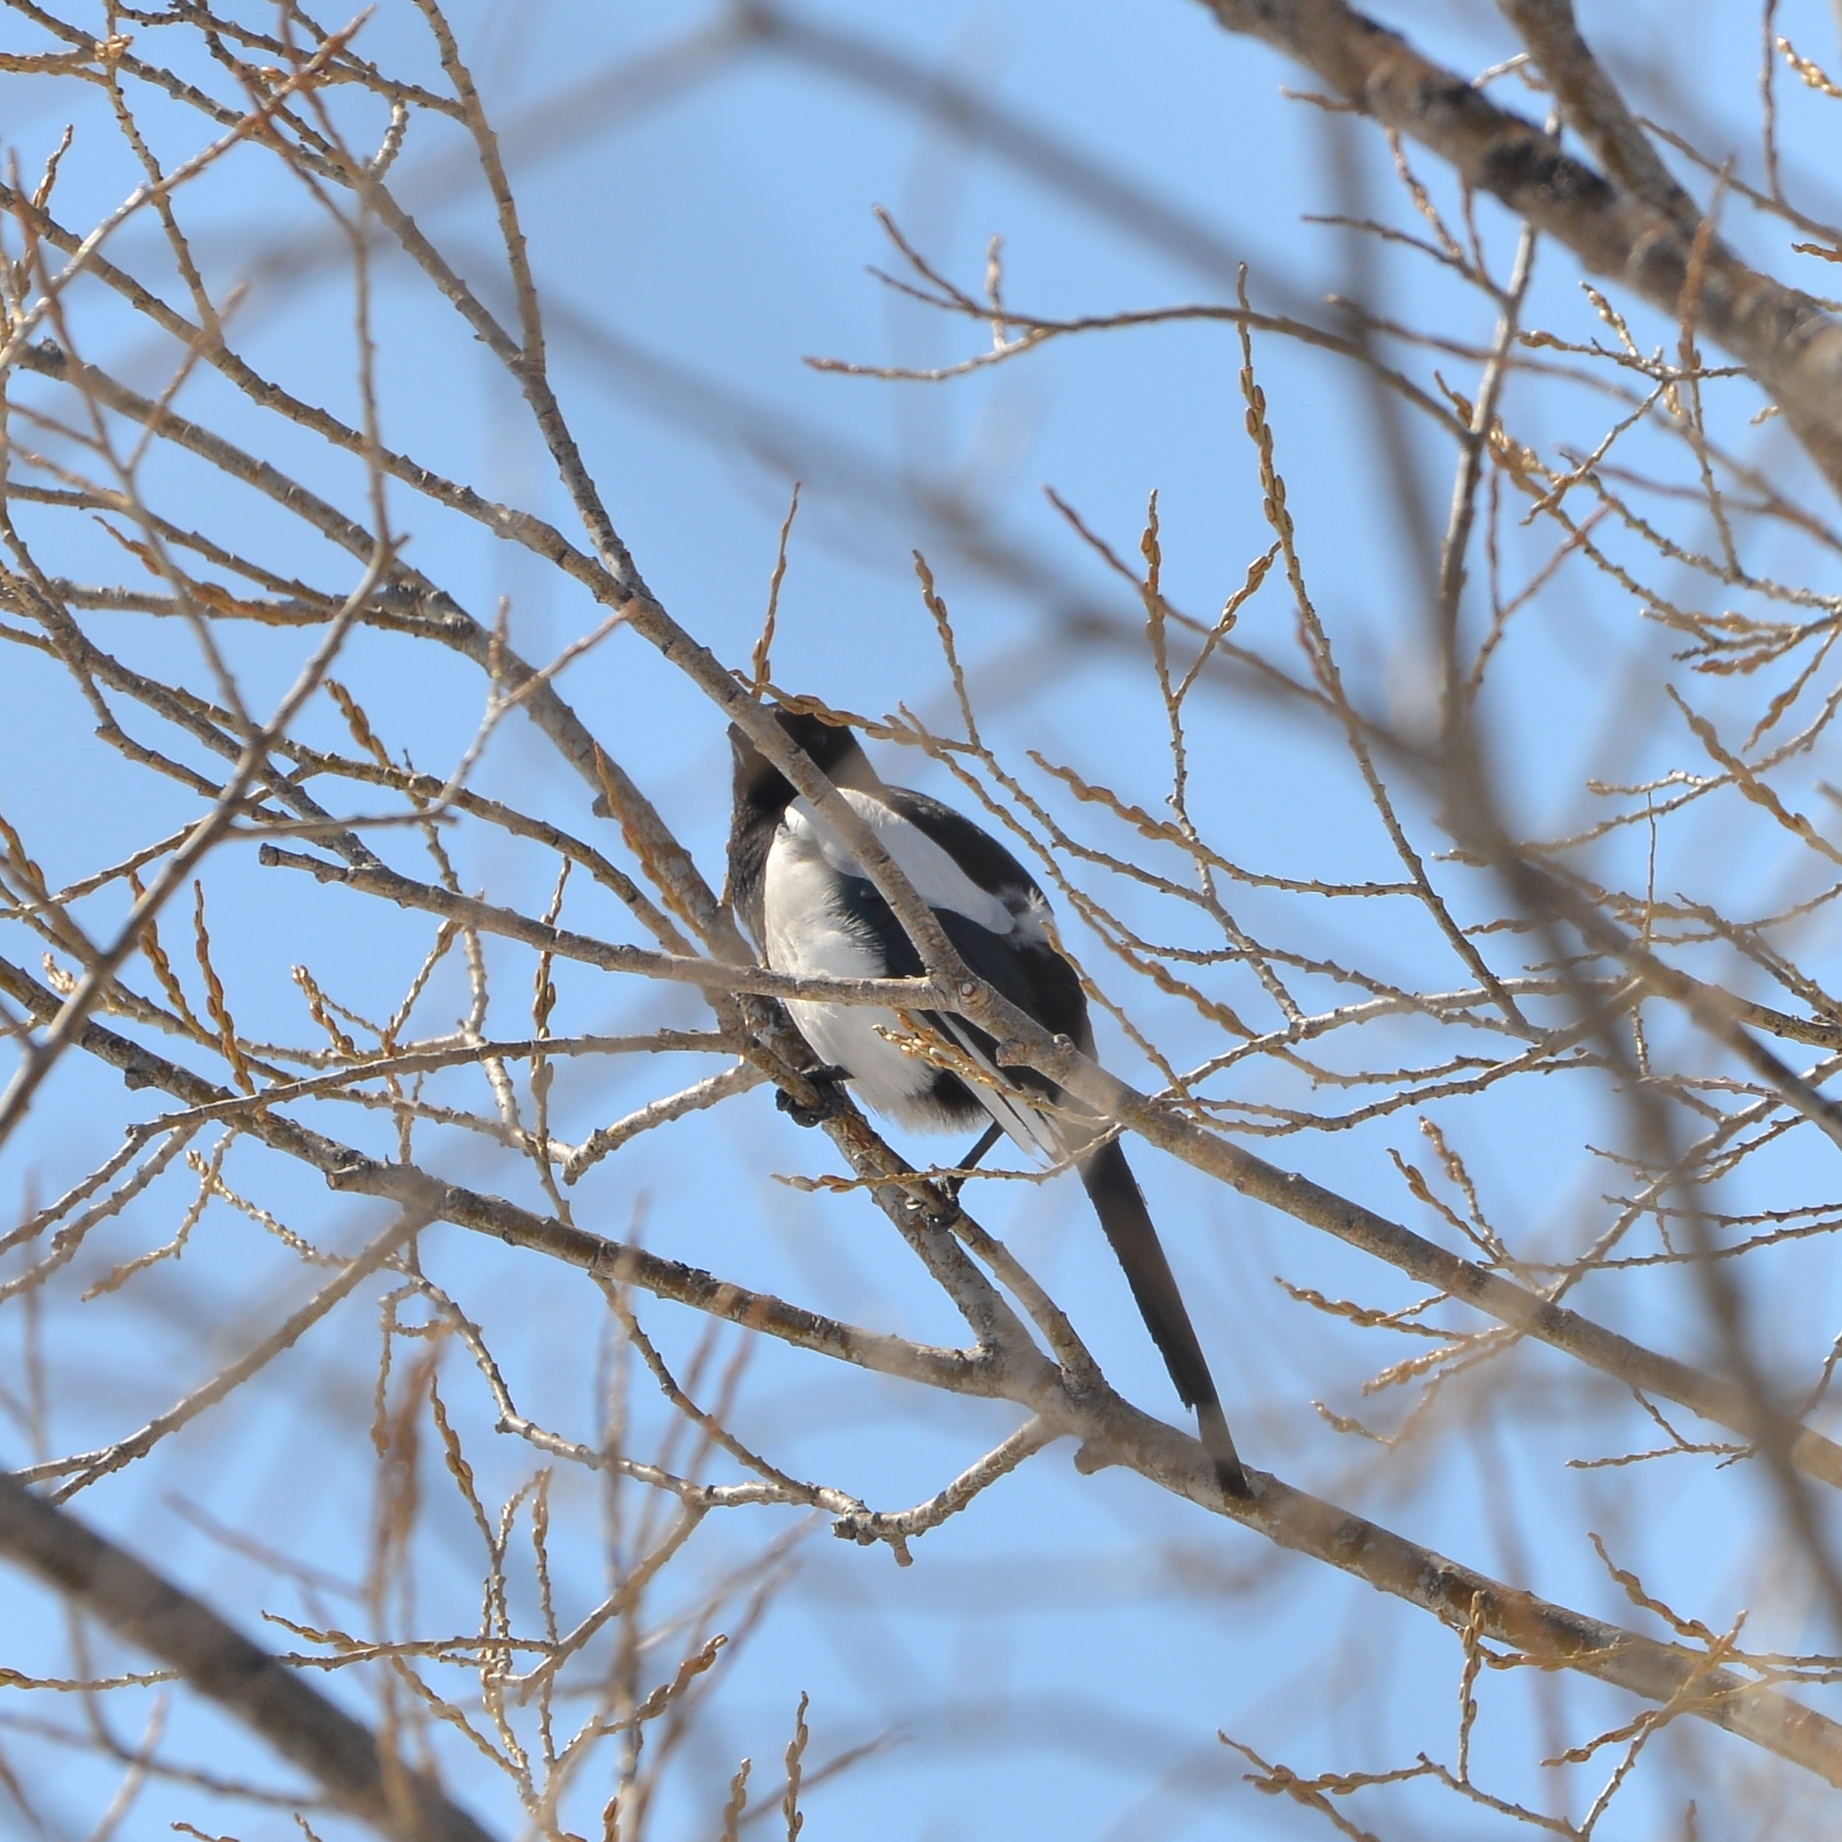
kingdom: Animalia
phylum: Chordata
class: Aves
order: Passeriformes
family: Corvidae
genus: Pica
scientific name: Pica pica
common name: Eurasian magpie
